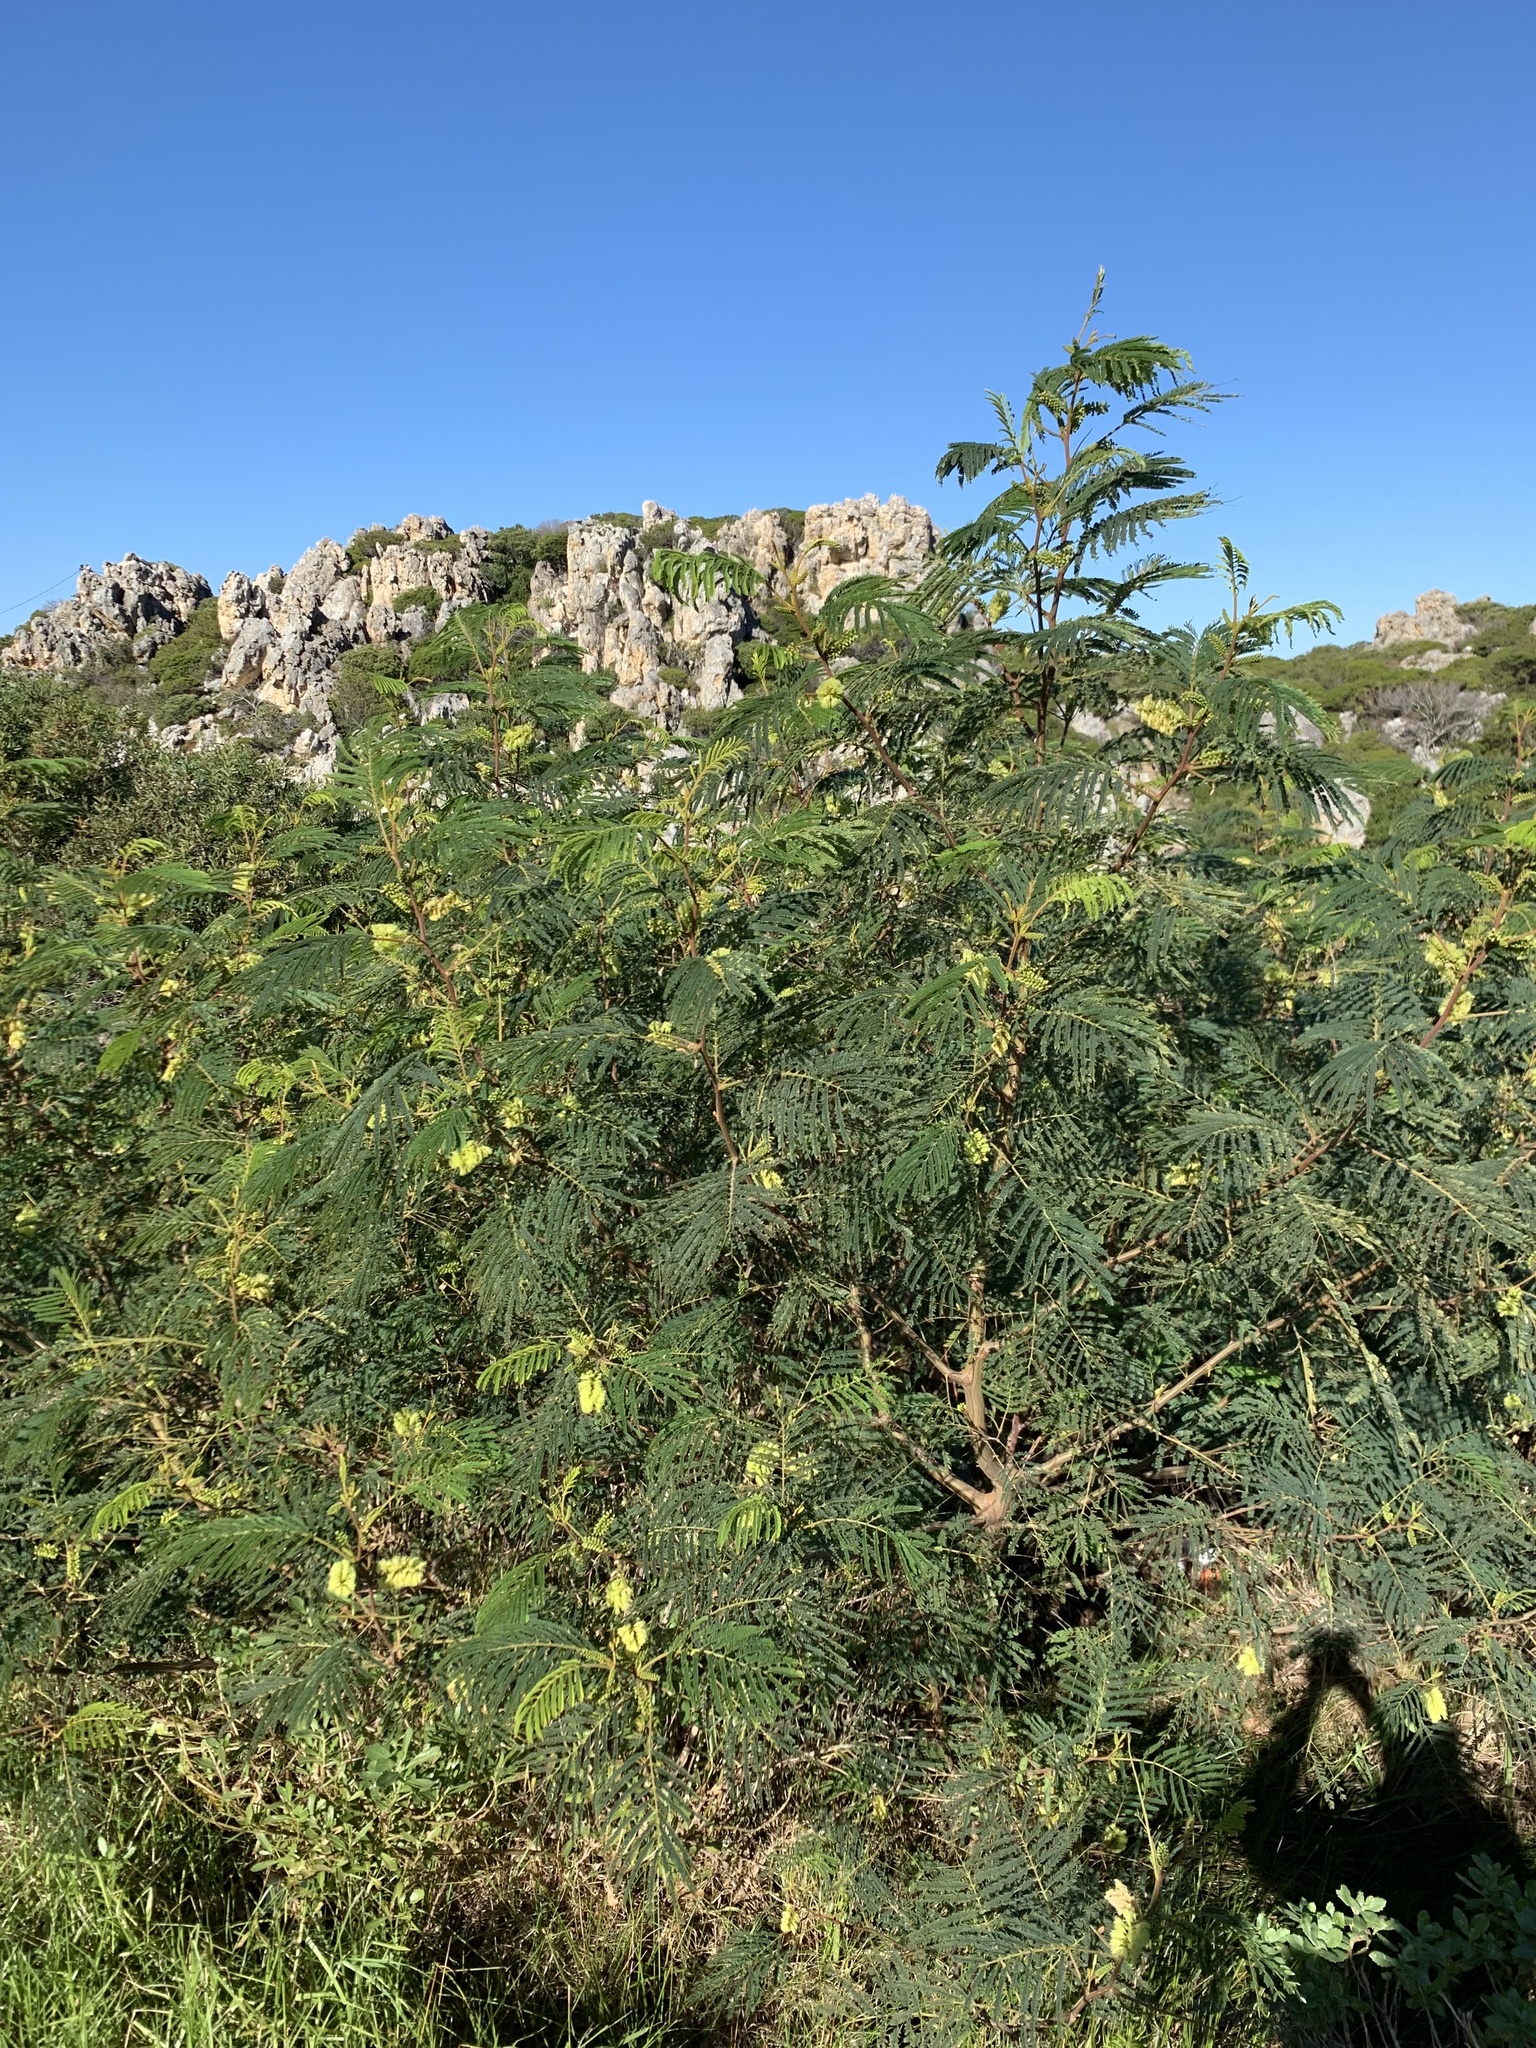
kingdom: Plantae
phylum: Tracheophyta
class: Magnoliopsida
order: Fabales
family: Fabaceae
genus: Paraserianthes
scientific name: Paraserianthes lophantha
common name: Plume albizia
